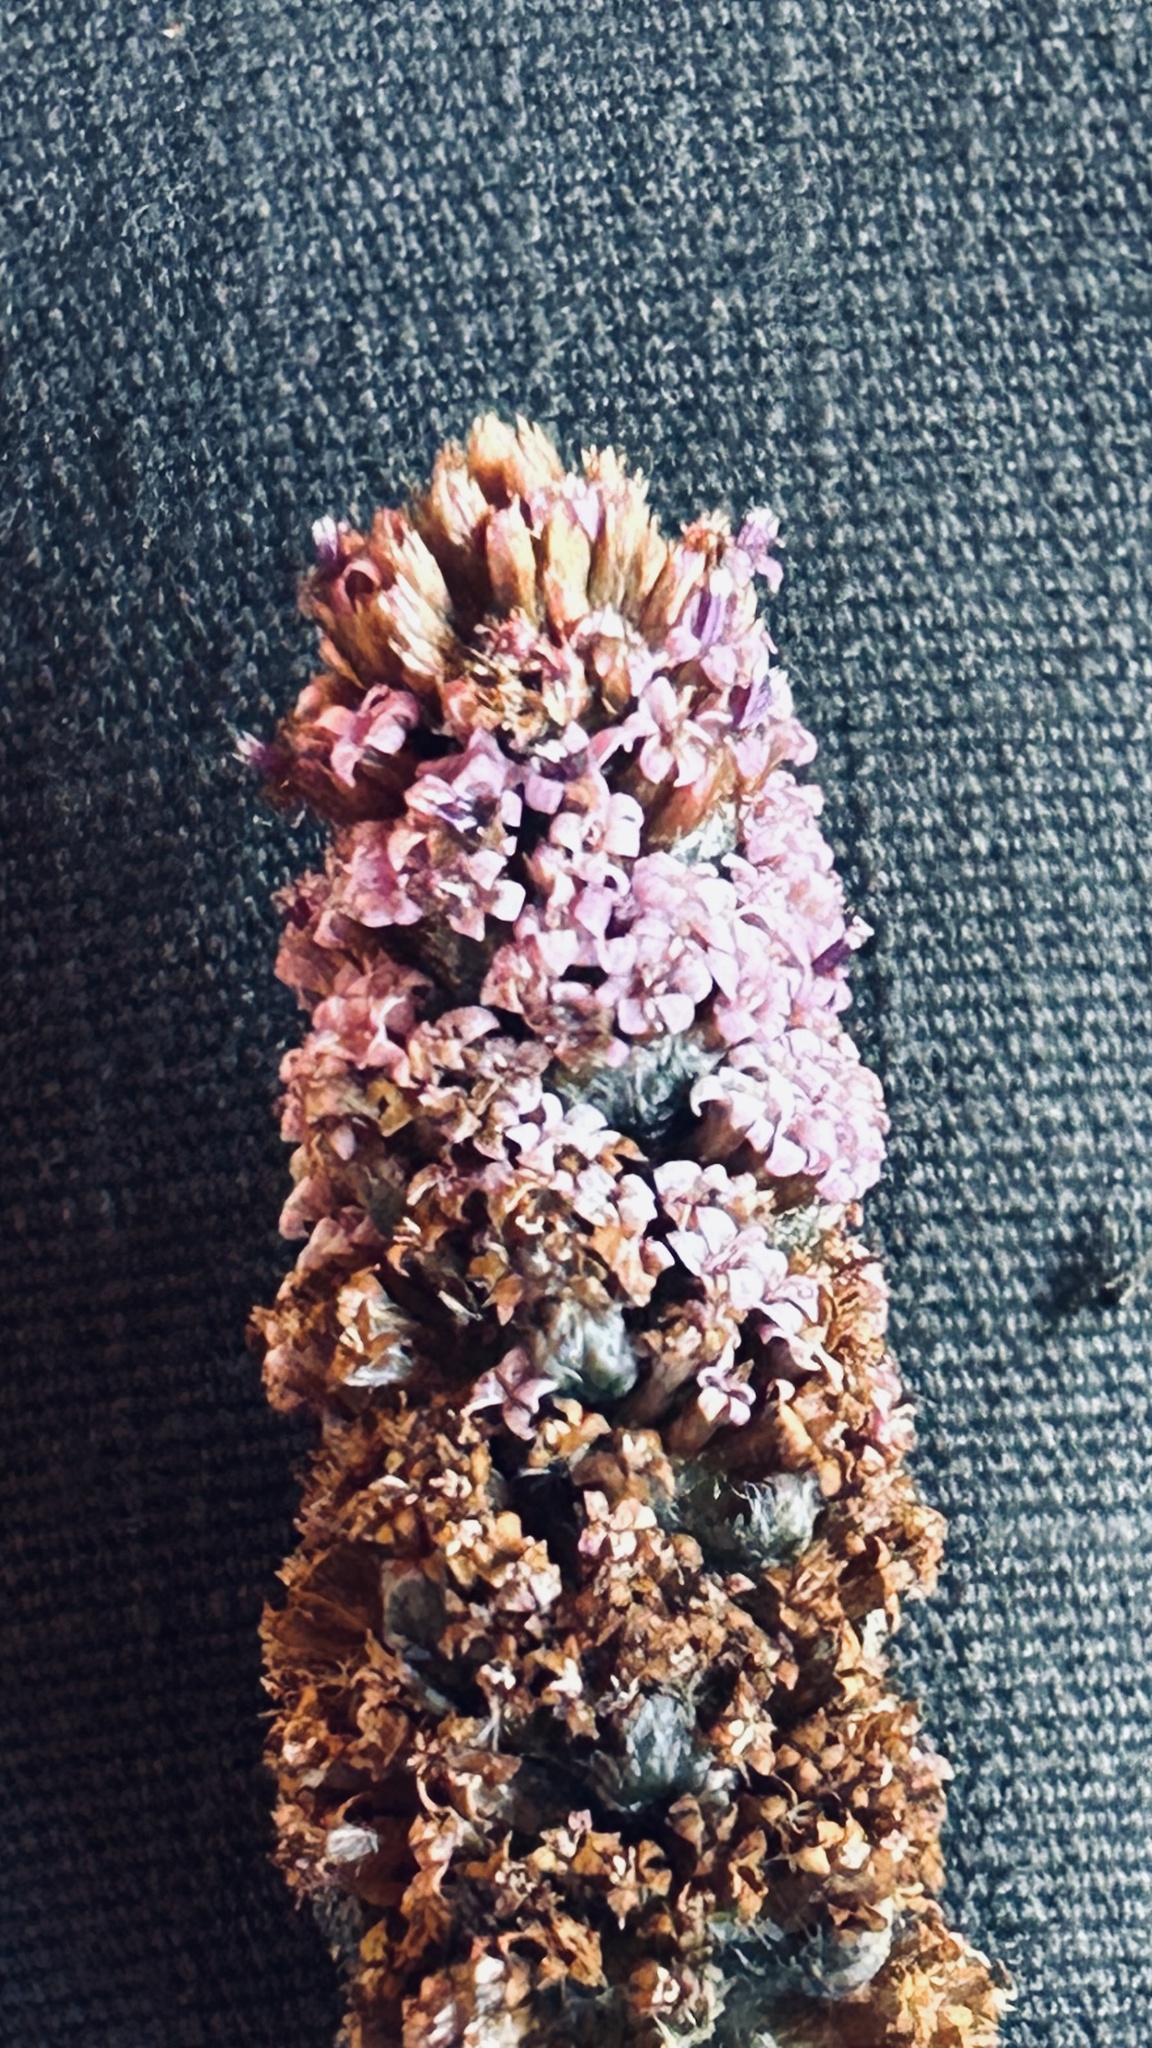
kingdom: Plantae
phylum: Tracheophyta
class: Magnoliopsida
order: Asterales
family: Asteraceae
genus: Stoebe
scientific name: Stoebe muirii
